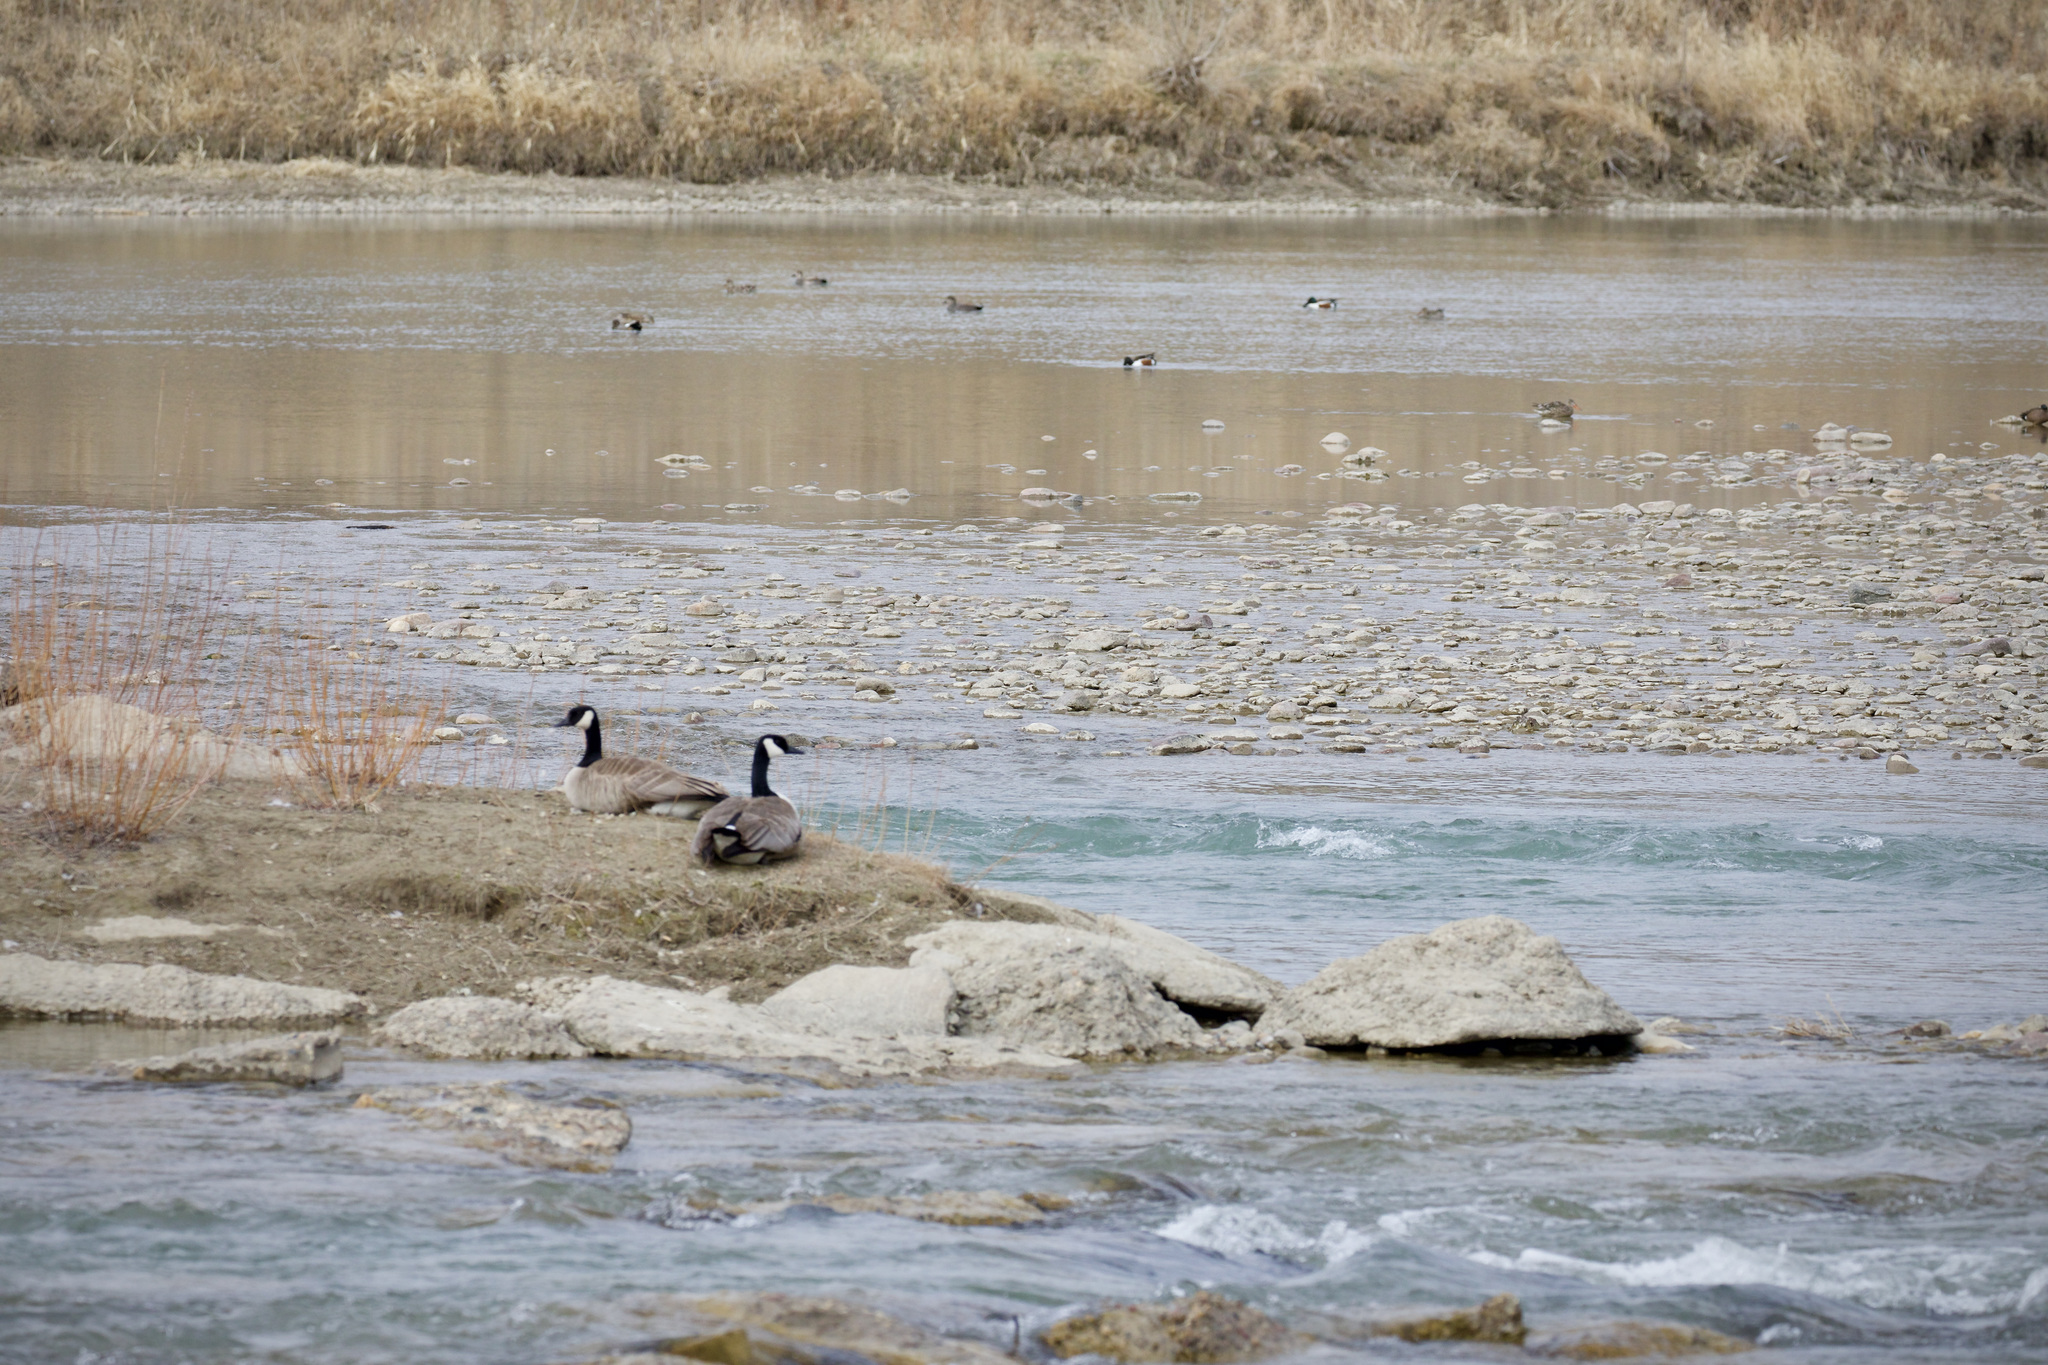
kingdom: Animalia
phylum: Chordata
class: Aves
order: Anseriformes
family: Anatidae
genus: Branta
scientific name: Branta canadensis
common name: Canada goose
